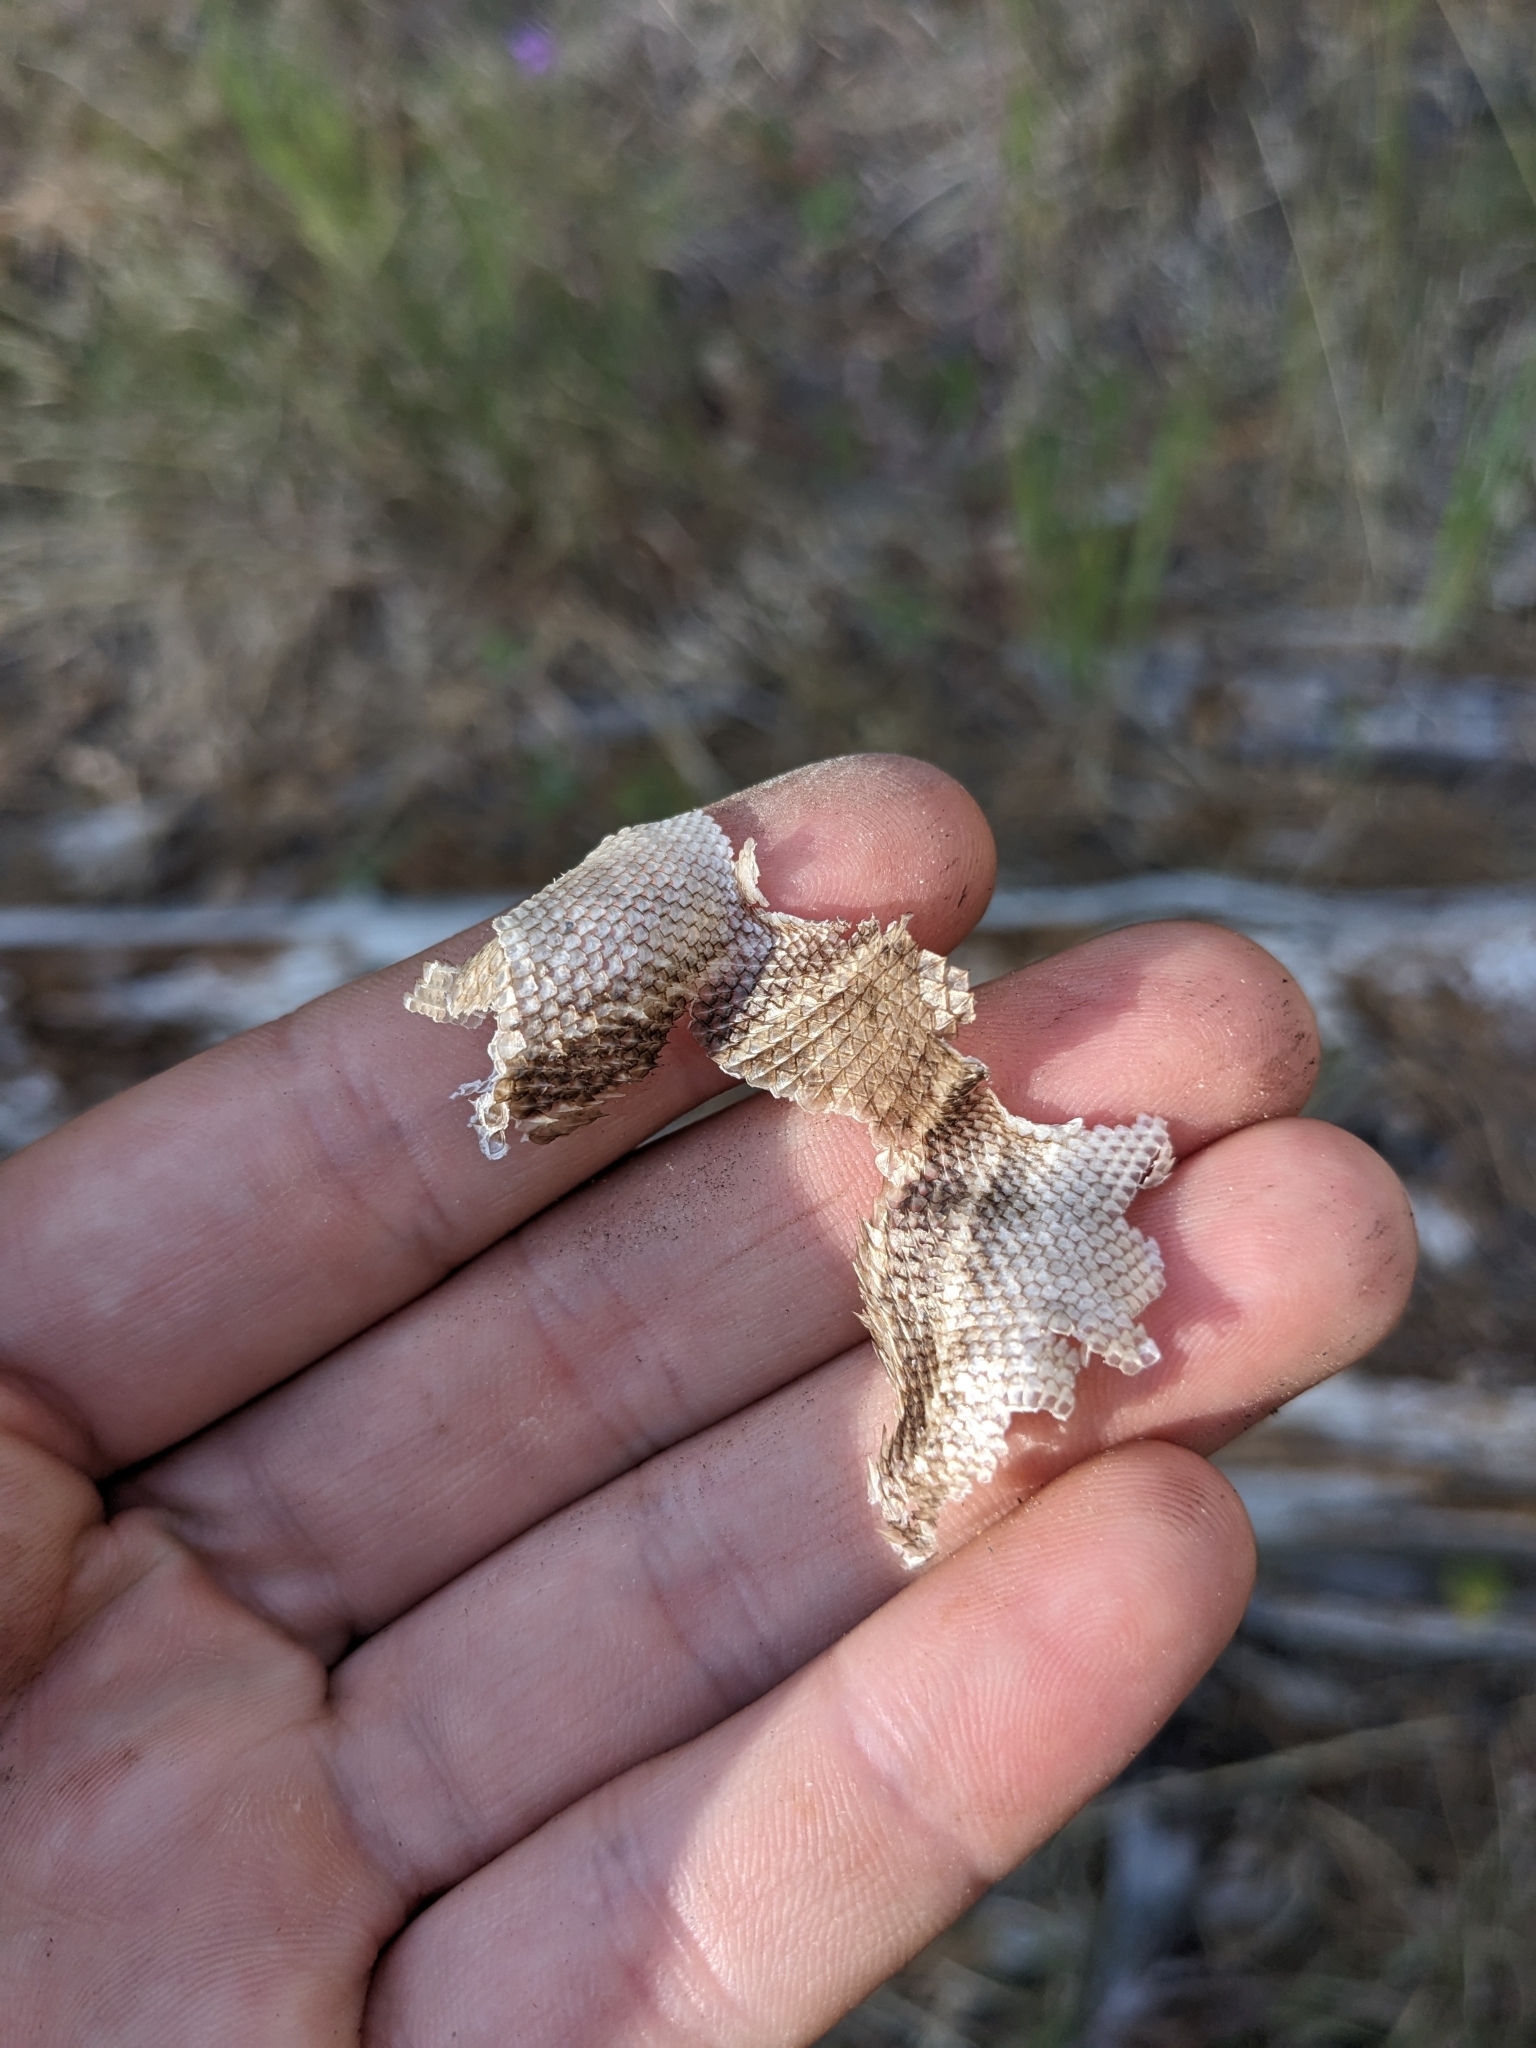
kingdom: Animalia
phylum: Chordata
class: Squamata
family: Phrynosomatidae
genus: Sceloporus
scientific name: Sceloporus cowlesi
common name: White sands prairie lizard
